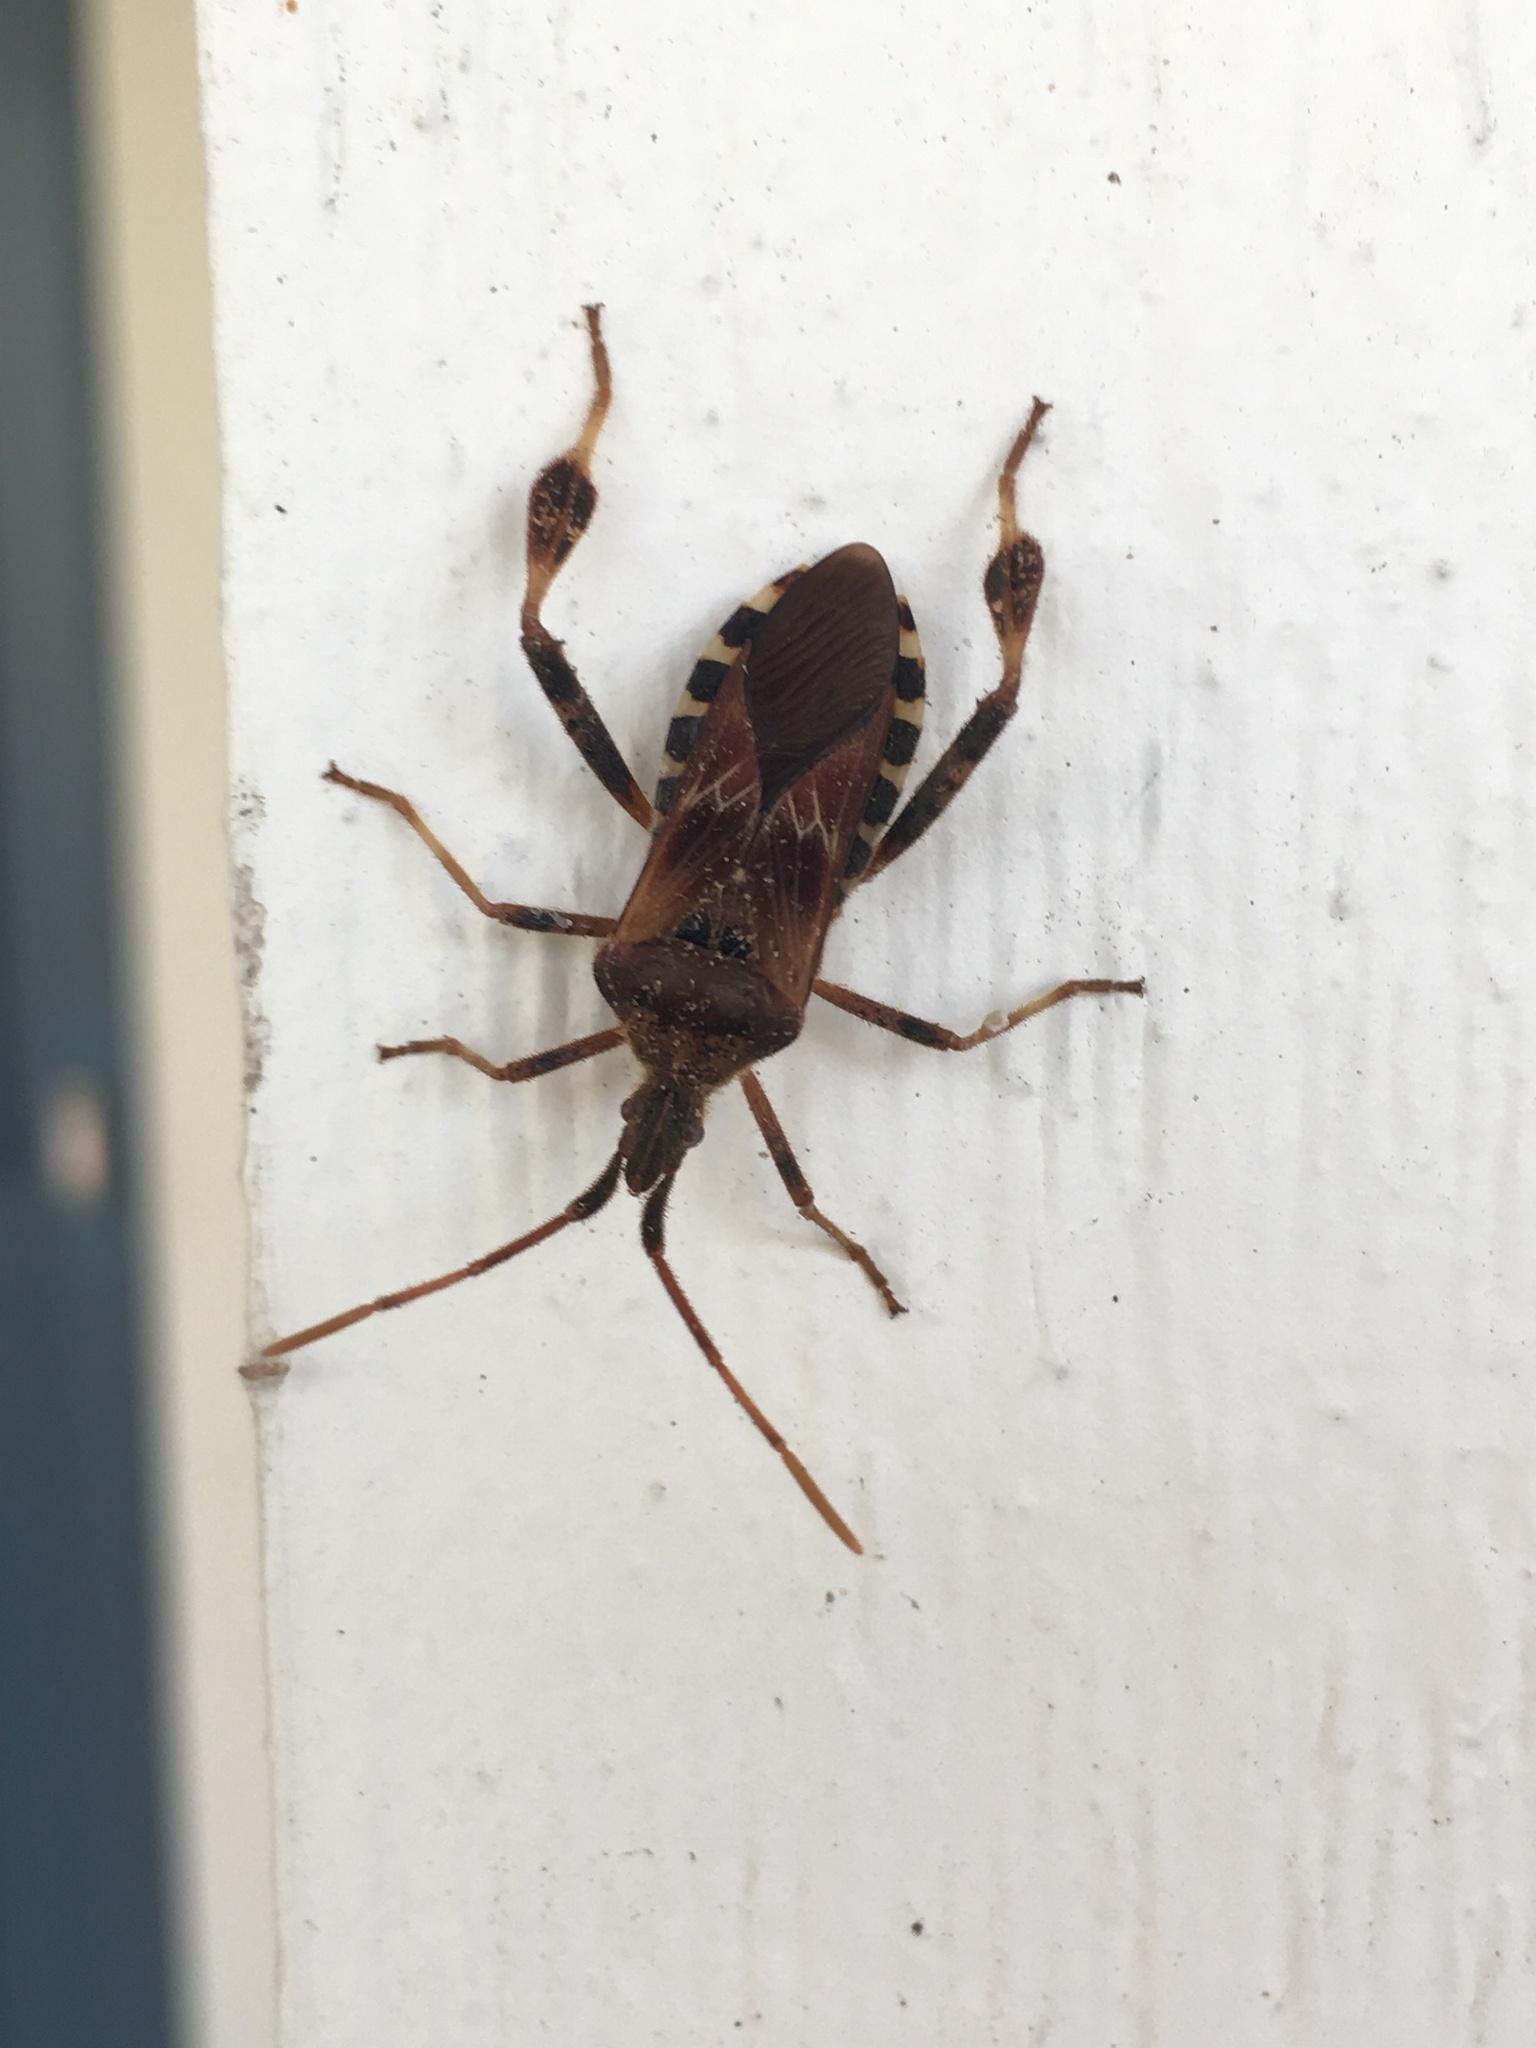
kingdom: Animalia
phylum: Arthropoda
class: Insecta
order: Hemiptera
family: Coreidae
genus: Leptoglossus
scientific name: Leptoglossus occidentalis
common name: Western conifer-seed bug
